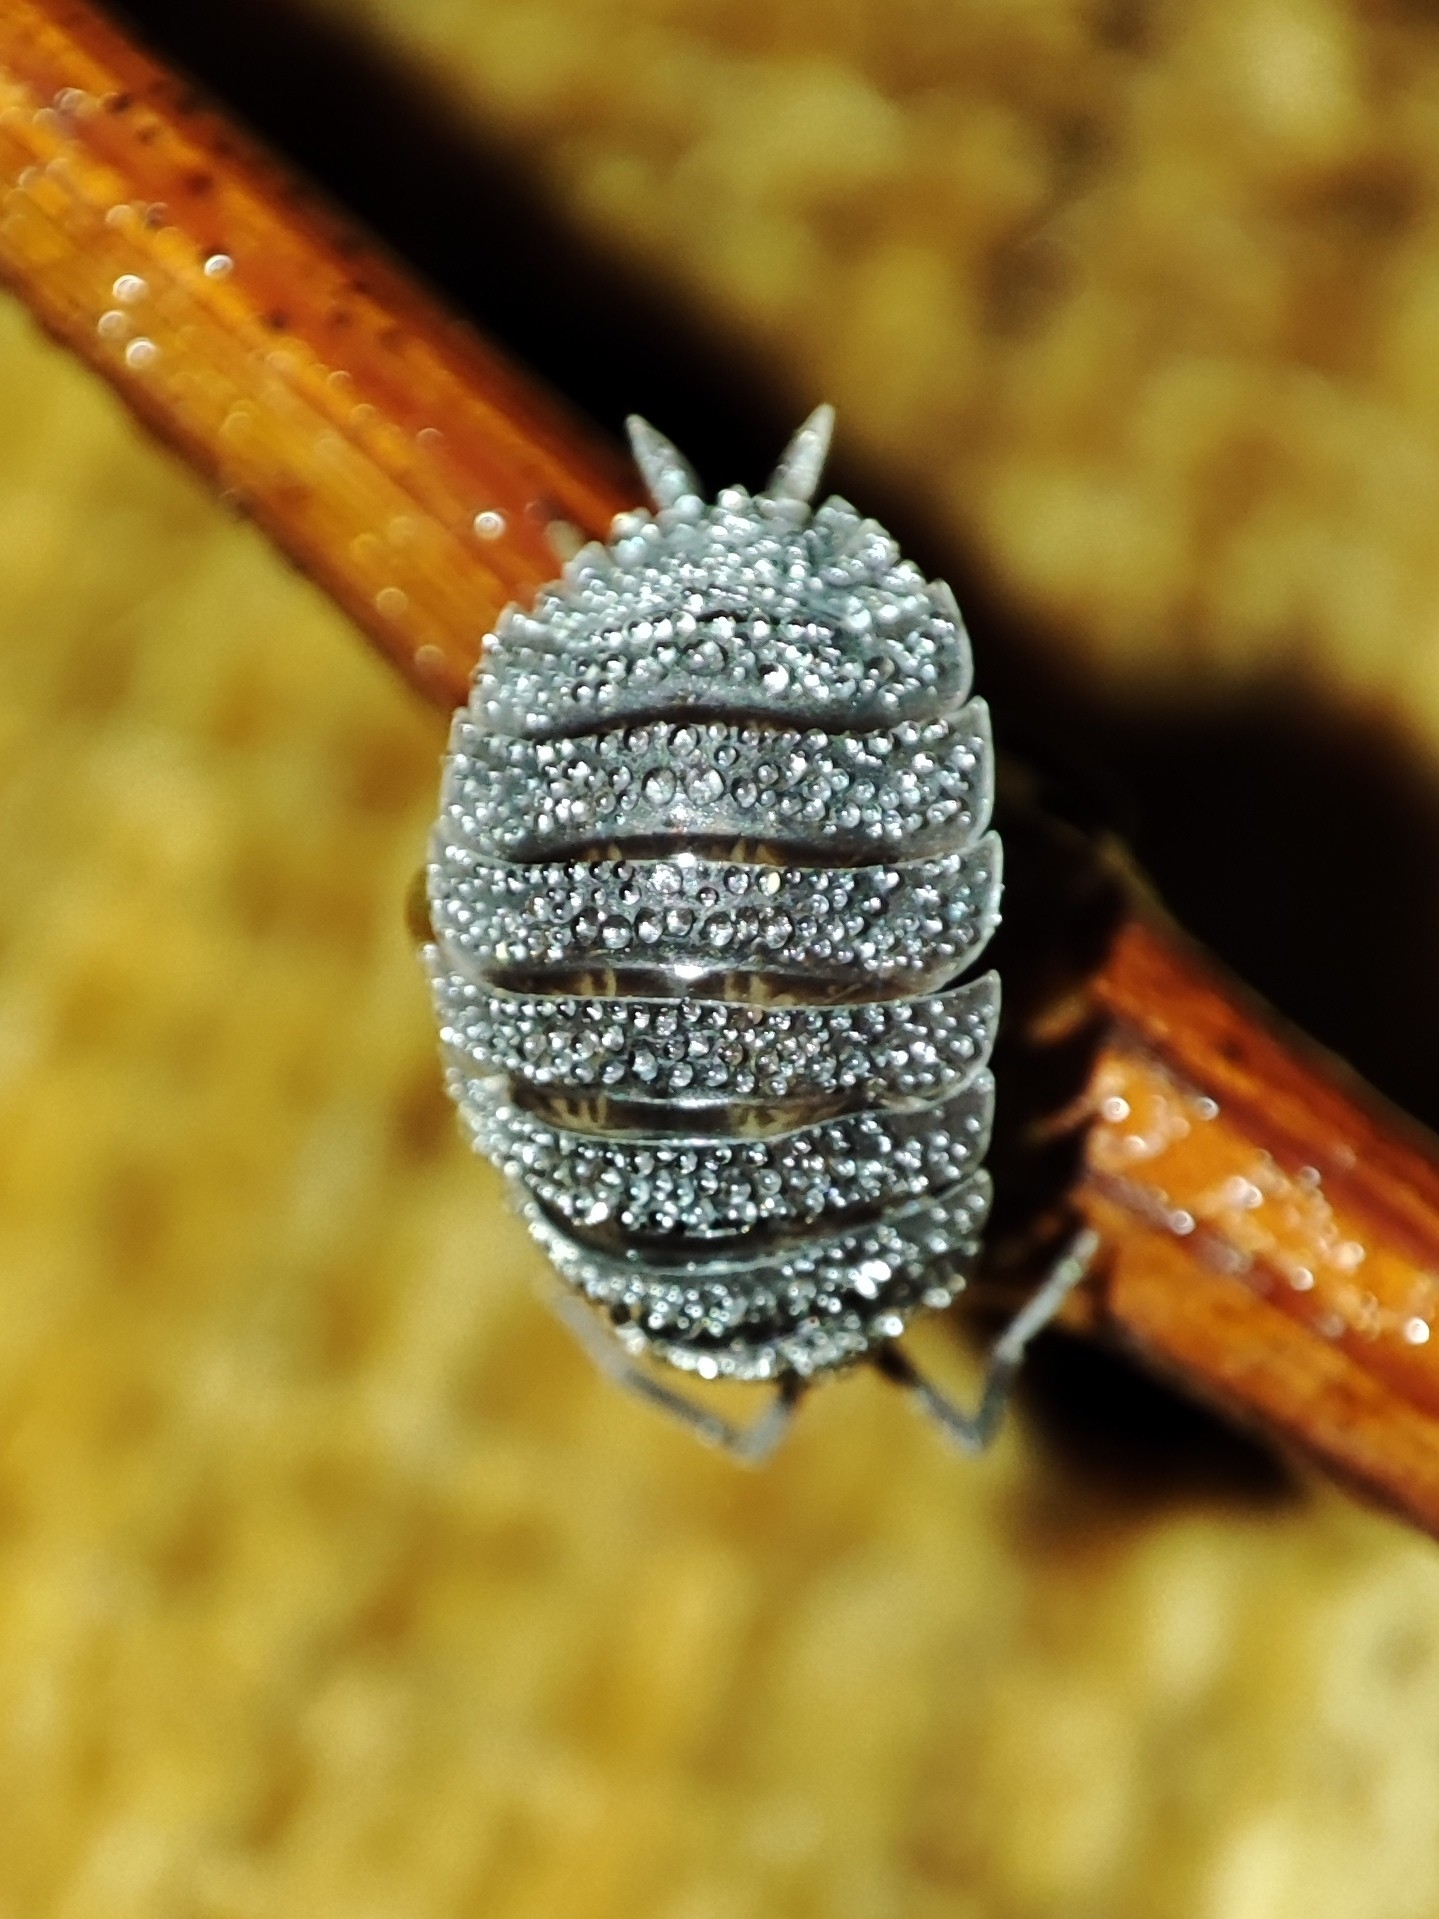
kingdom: Animalia
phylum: Arthropoda
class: Malacostraca
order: Isopoda
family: Porcellionidae
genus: Porcellio
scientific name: Porcellio scaber
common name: Common rough woodlouse
